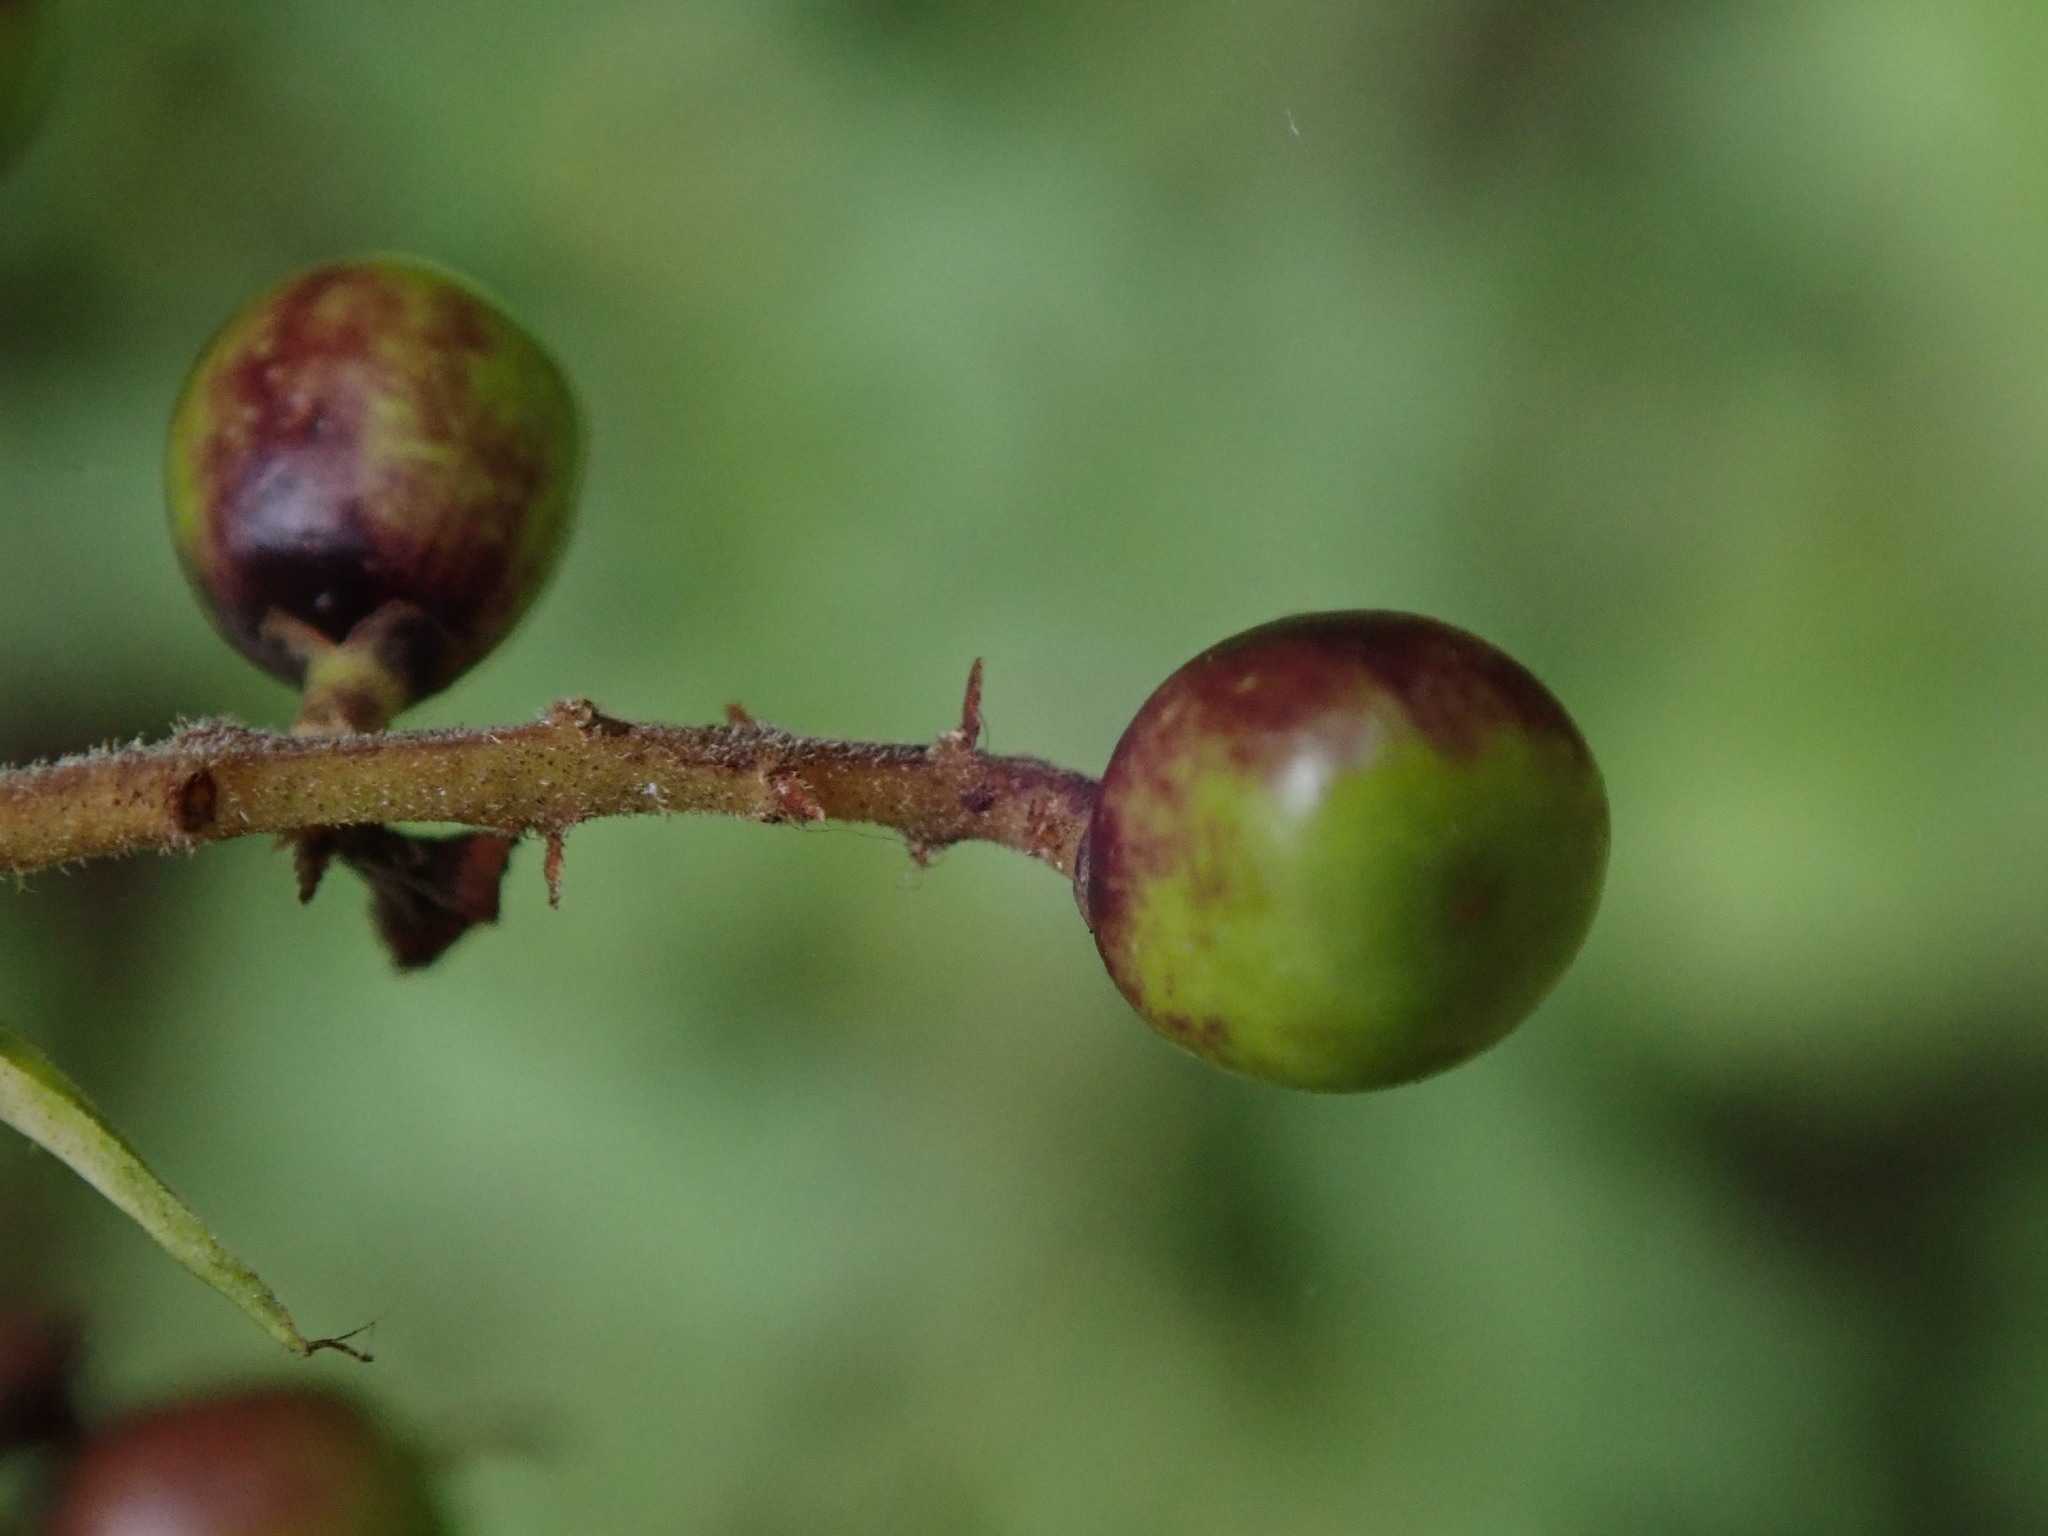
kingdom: Plantae
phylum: Tracheophyta
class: Magnoliopsida
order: Lamiales
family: Oleaceae
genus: Ligustrum
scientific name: Ligustrum vulgare
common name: Wild privet
